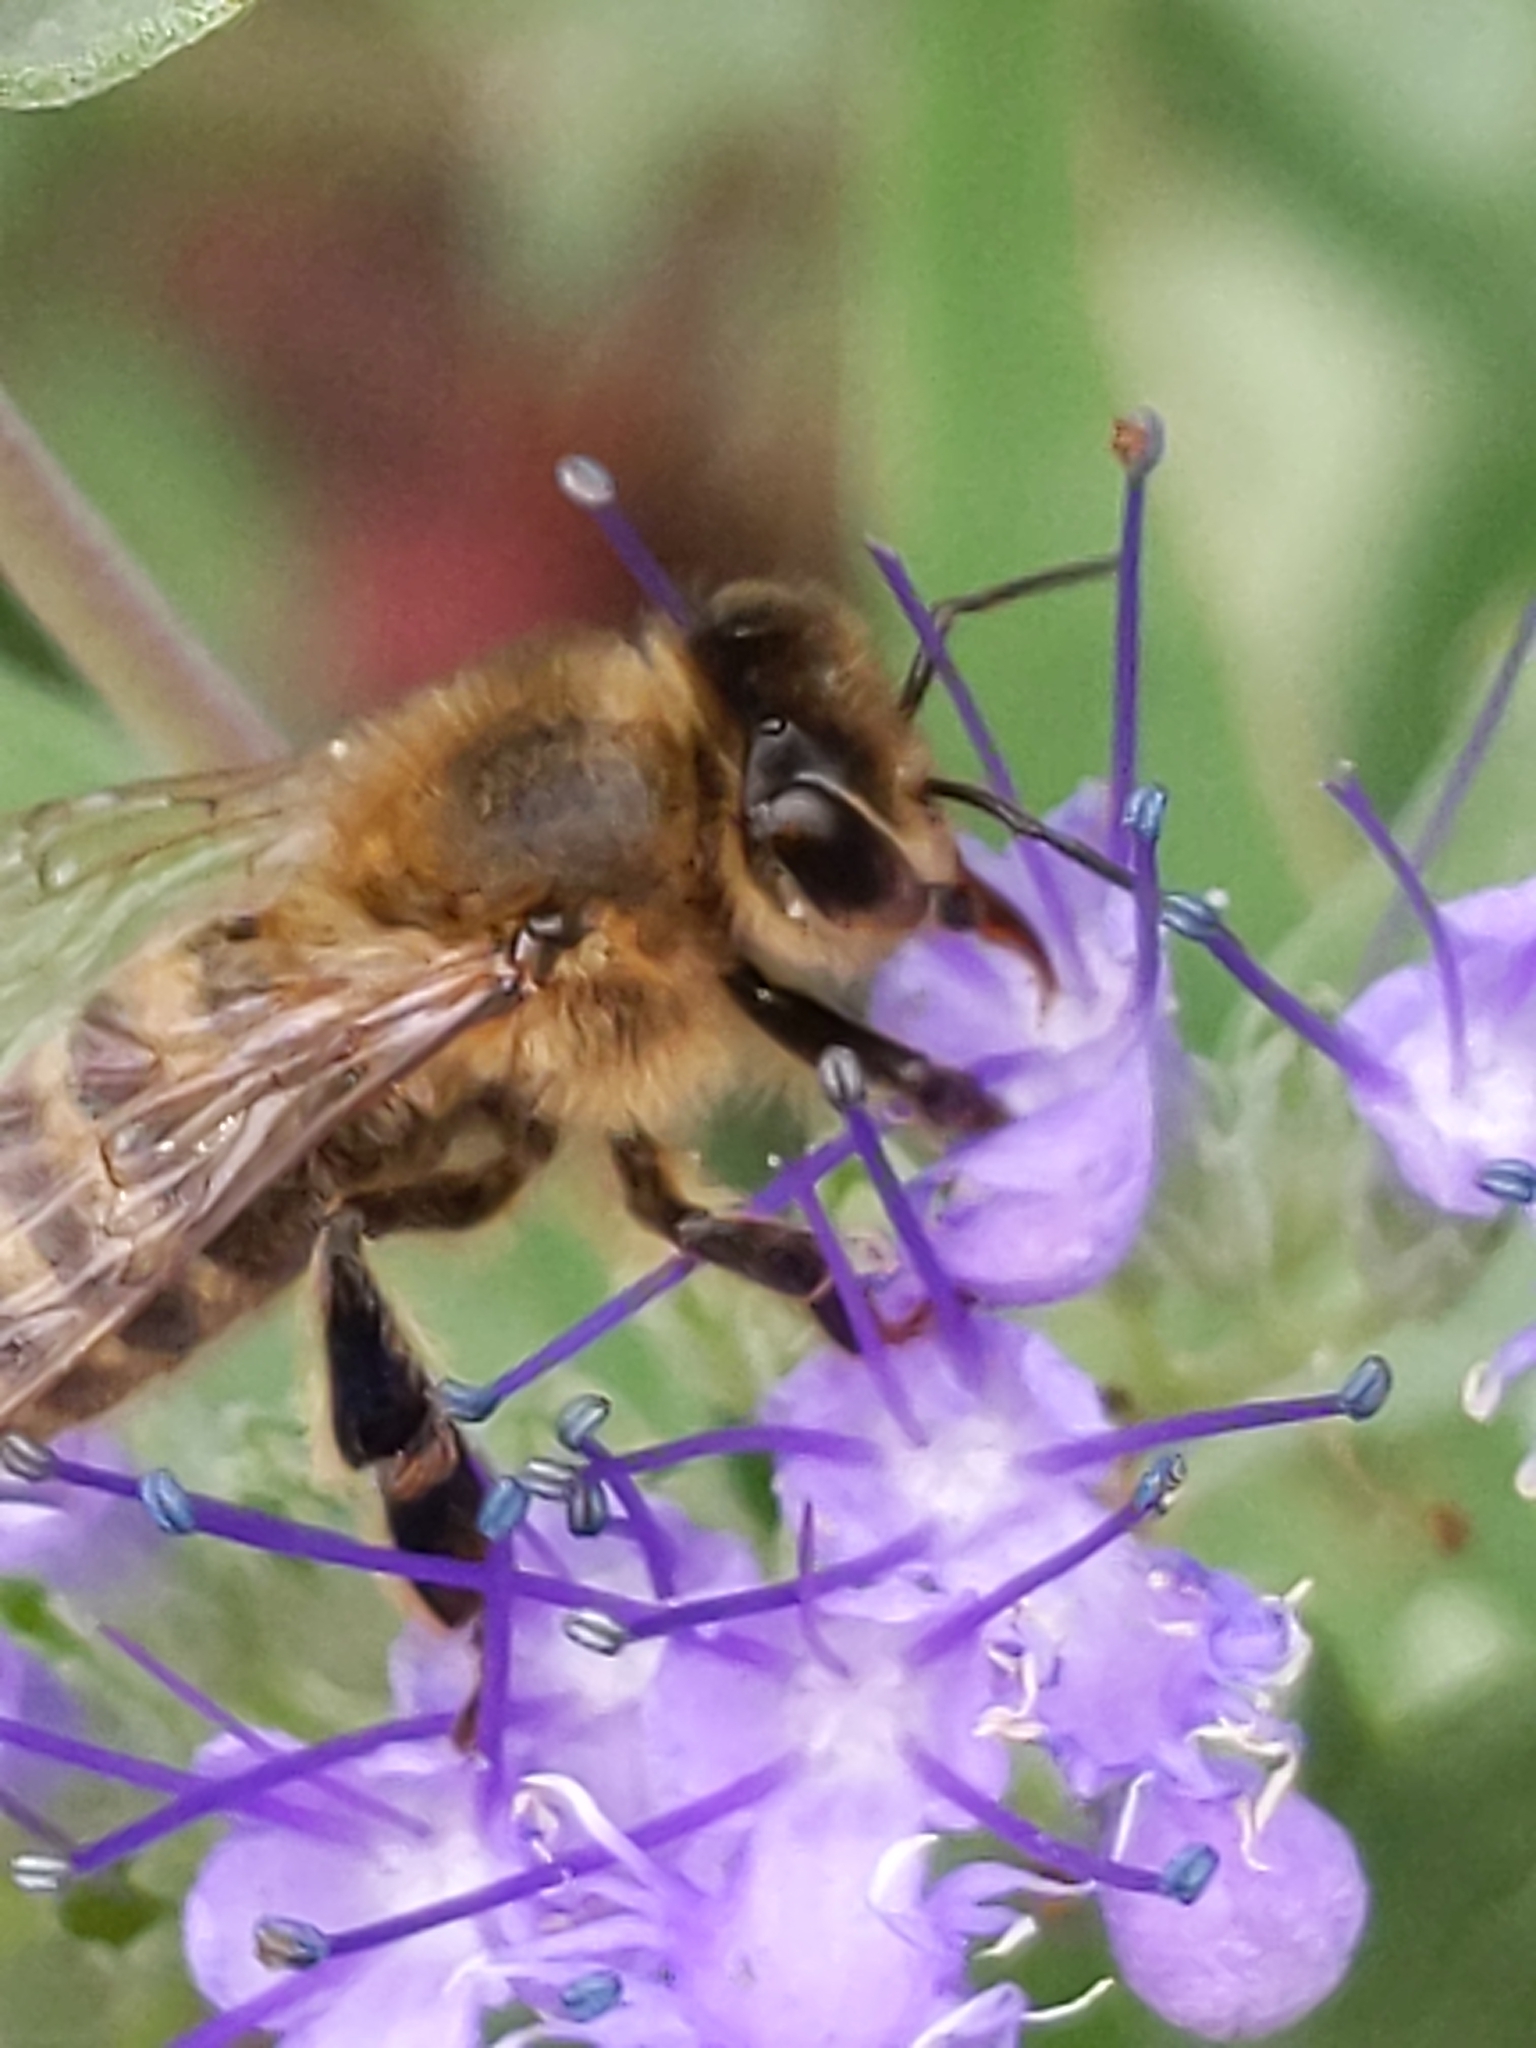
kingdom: Animalia
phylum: Arthropoda
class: Insecta
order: Hymenoptera
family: Apidae
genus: Apis
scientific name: Apis mellifera
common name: Honey bee
